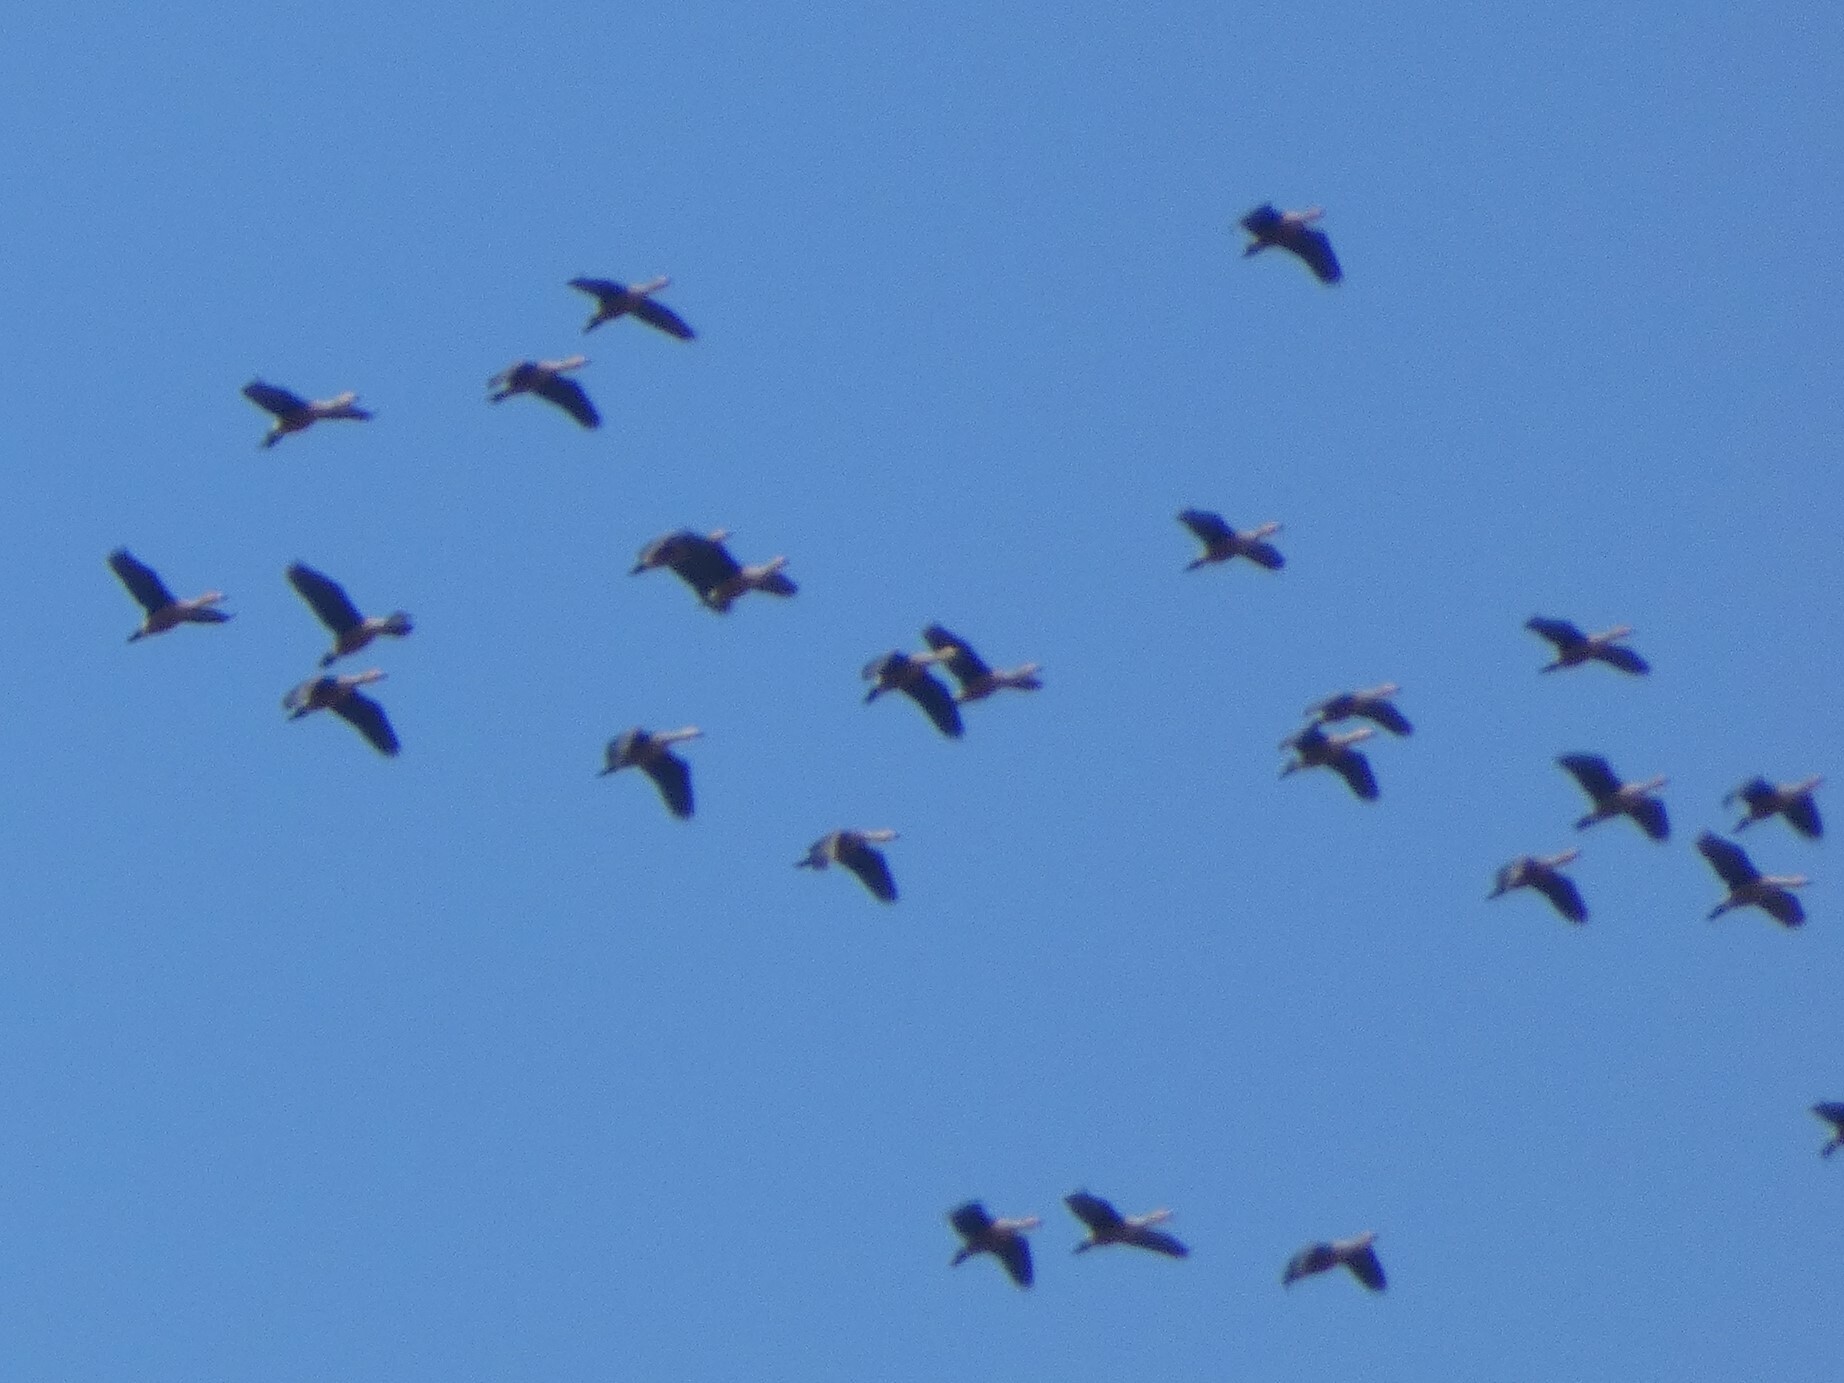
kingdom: Animalia
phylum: Chordata
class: Aves
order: Anseriformes
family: Anatidae
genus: Dendrocygna
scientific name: Dendrocygna javanica
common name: Lesser whistling-duck
